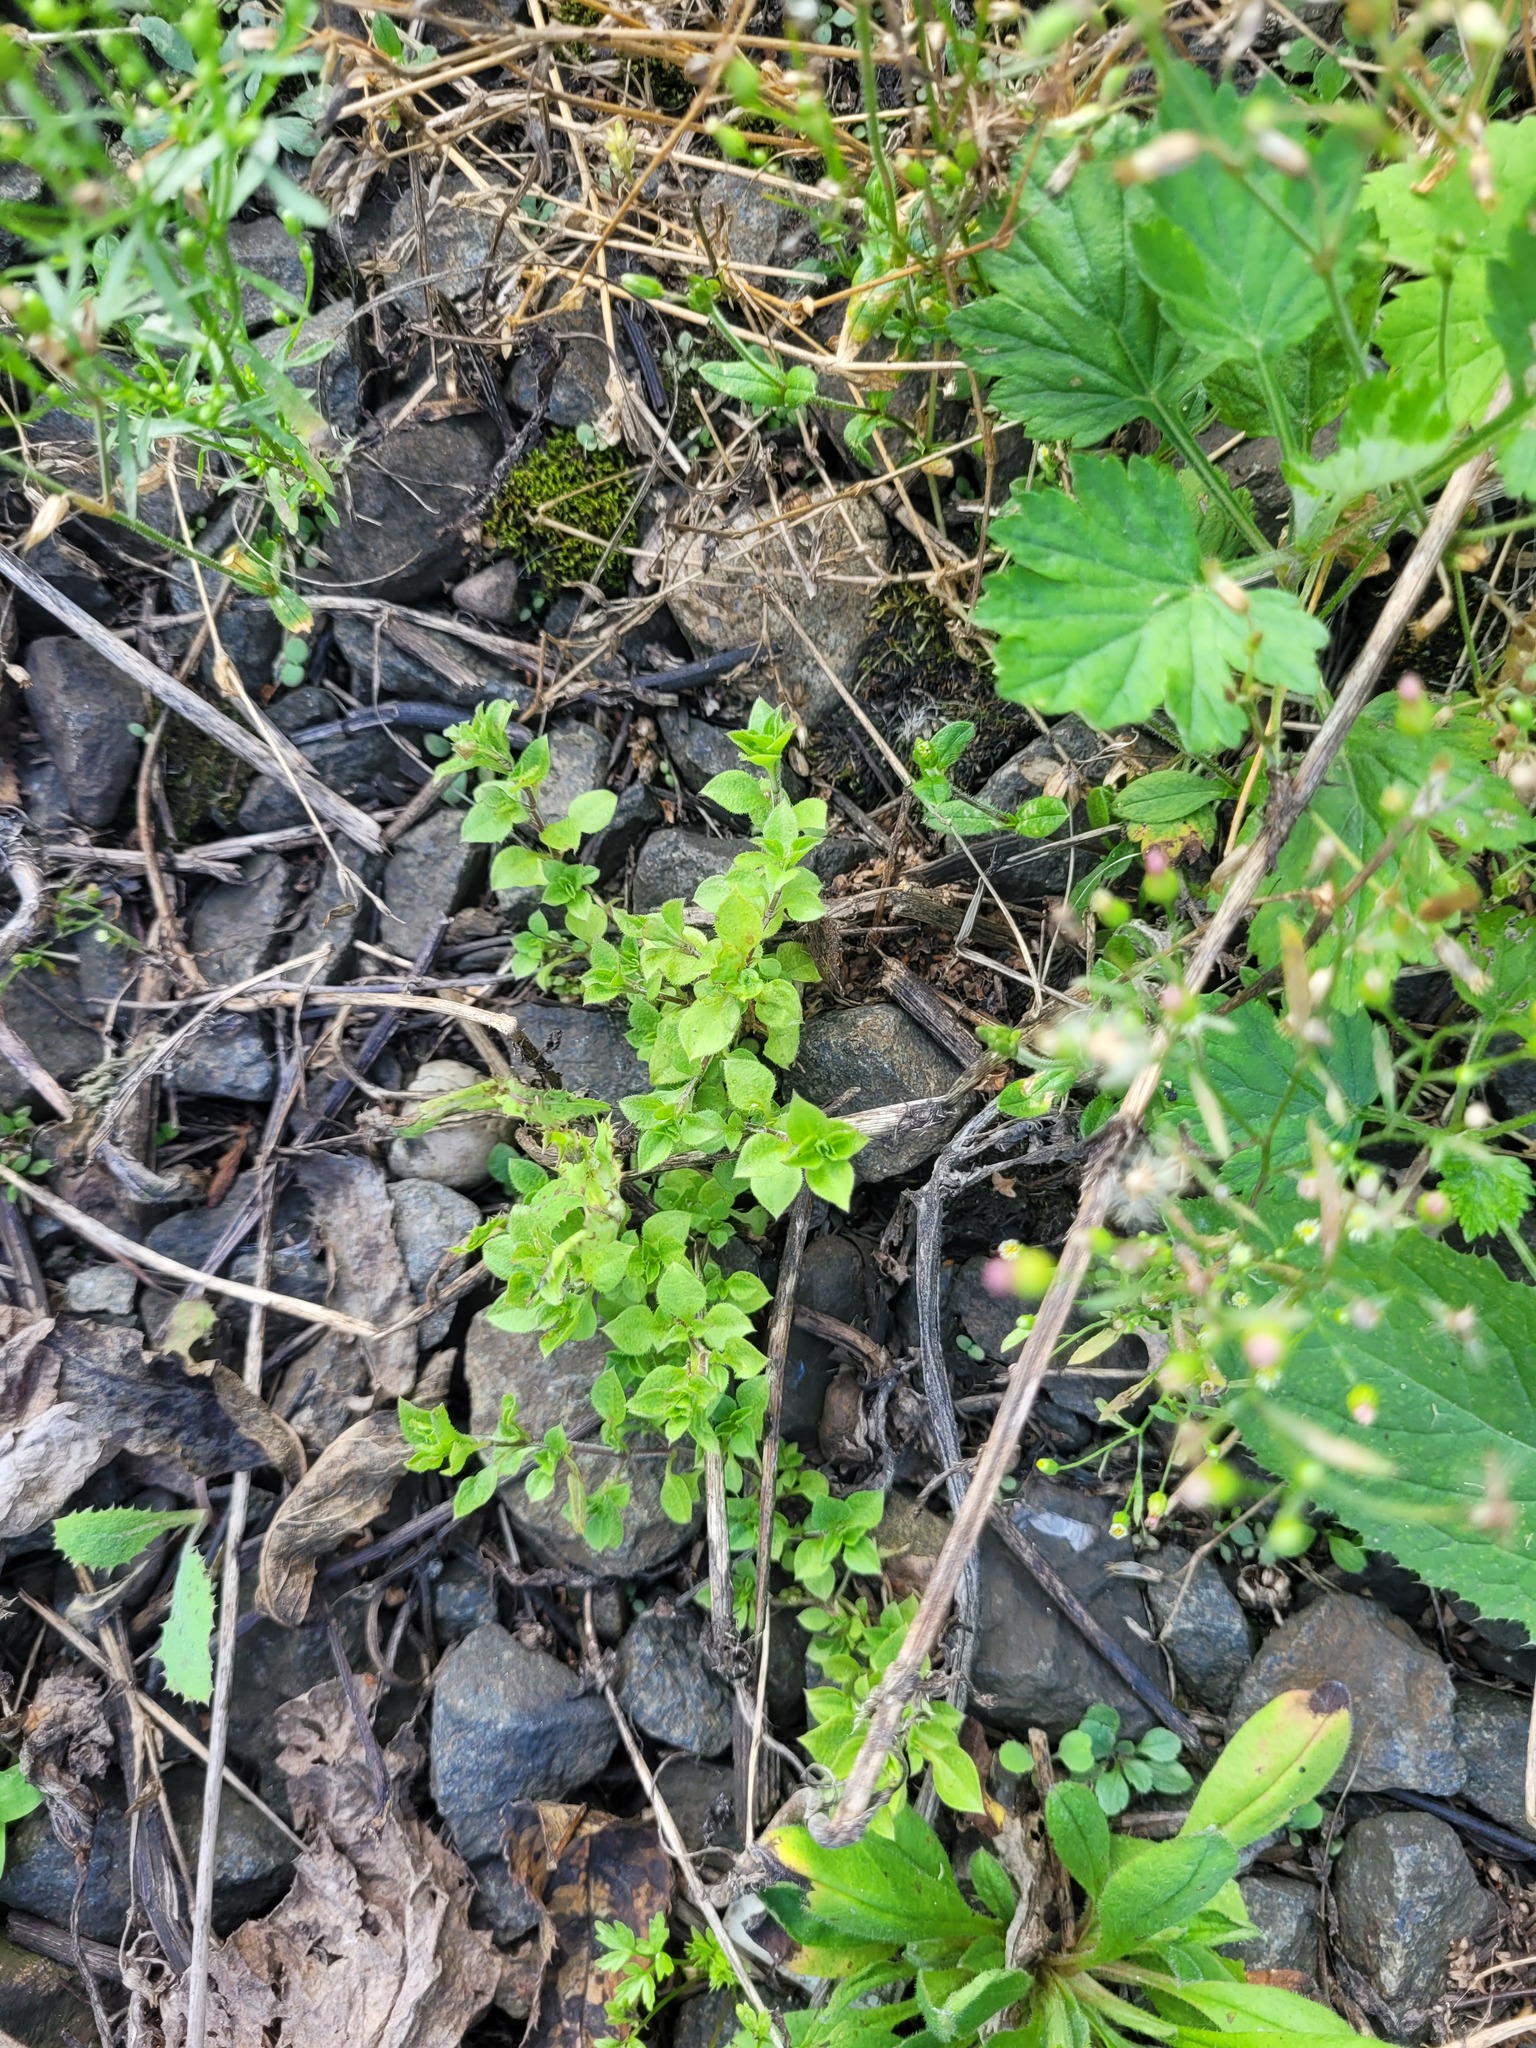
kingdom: Plantae
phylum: Tracheophyta
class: Magnoliopsida
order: Caryophyllales
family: Caryophyllaceae
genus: Moehringia
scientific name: Moehringia trinervia
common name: Three-nerved sandwort
